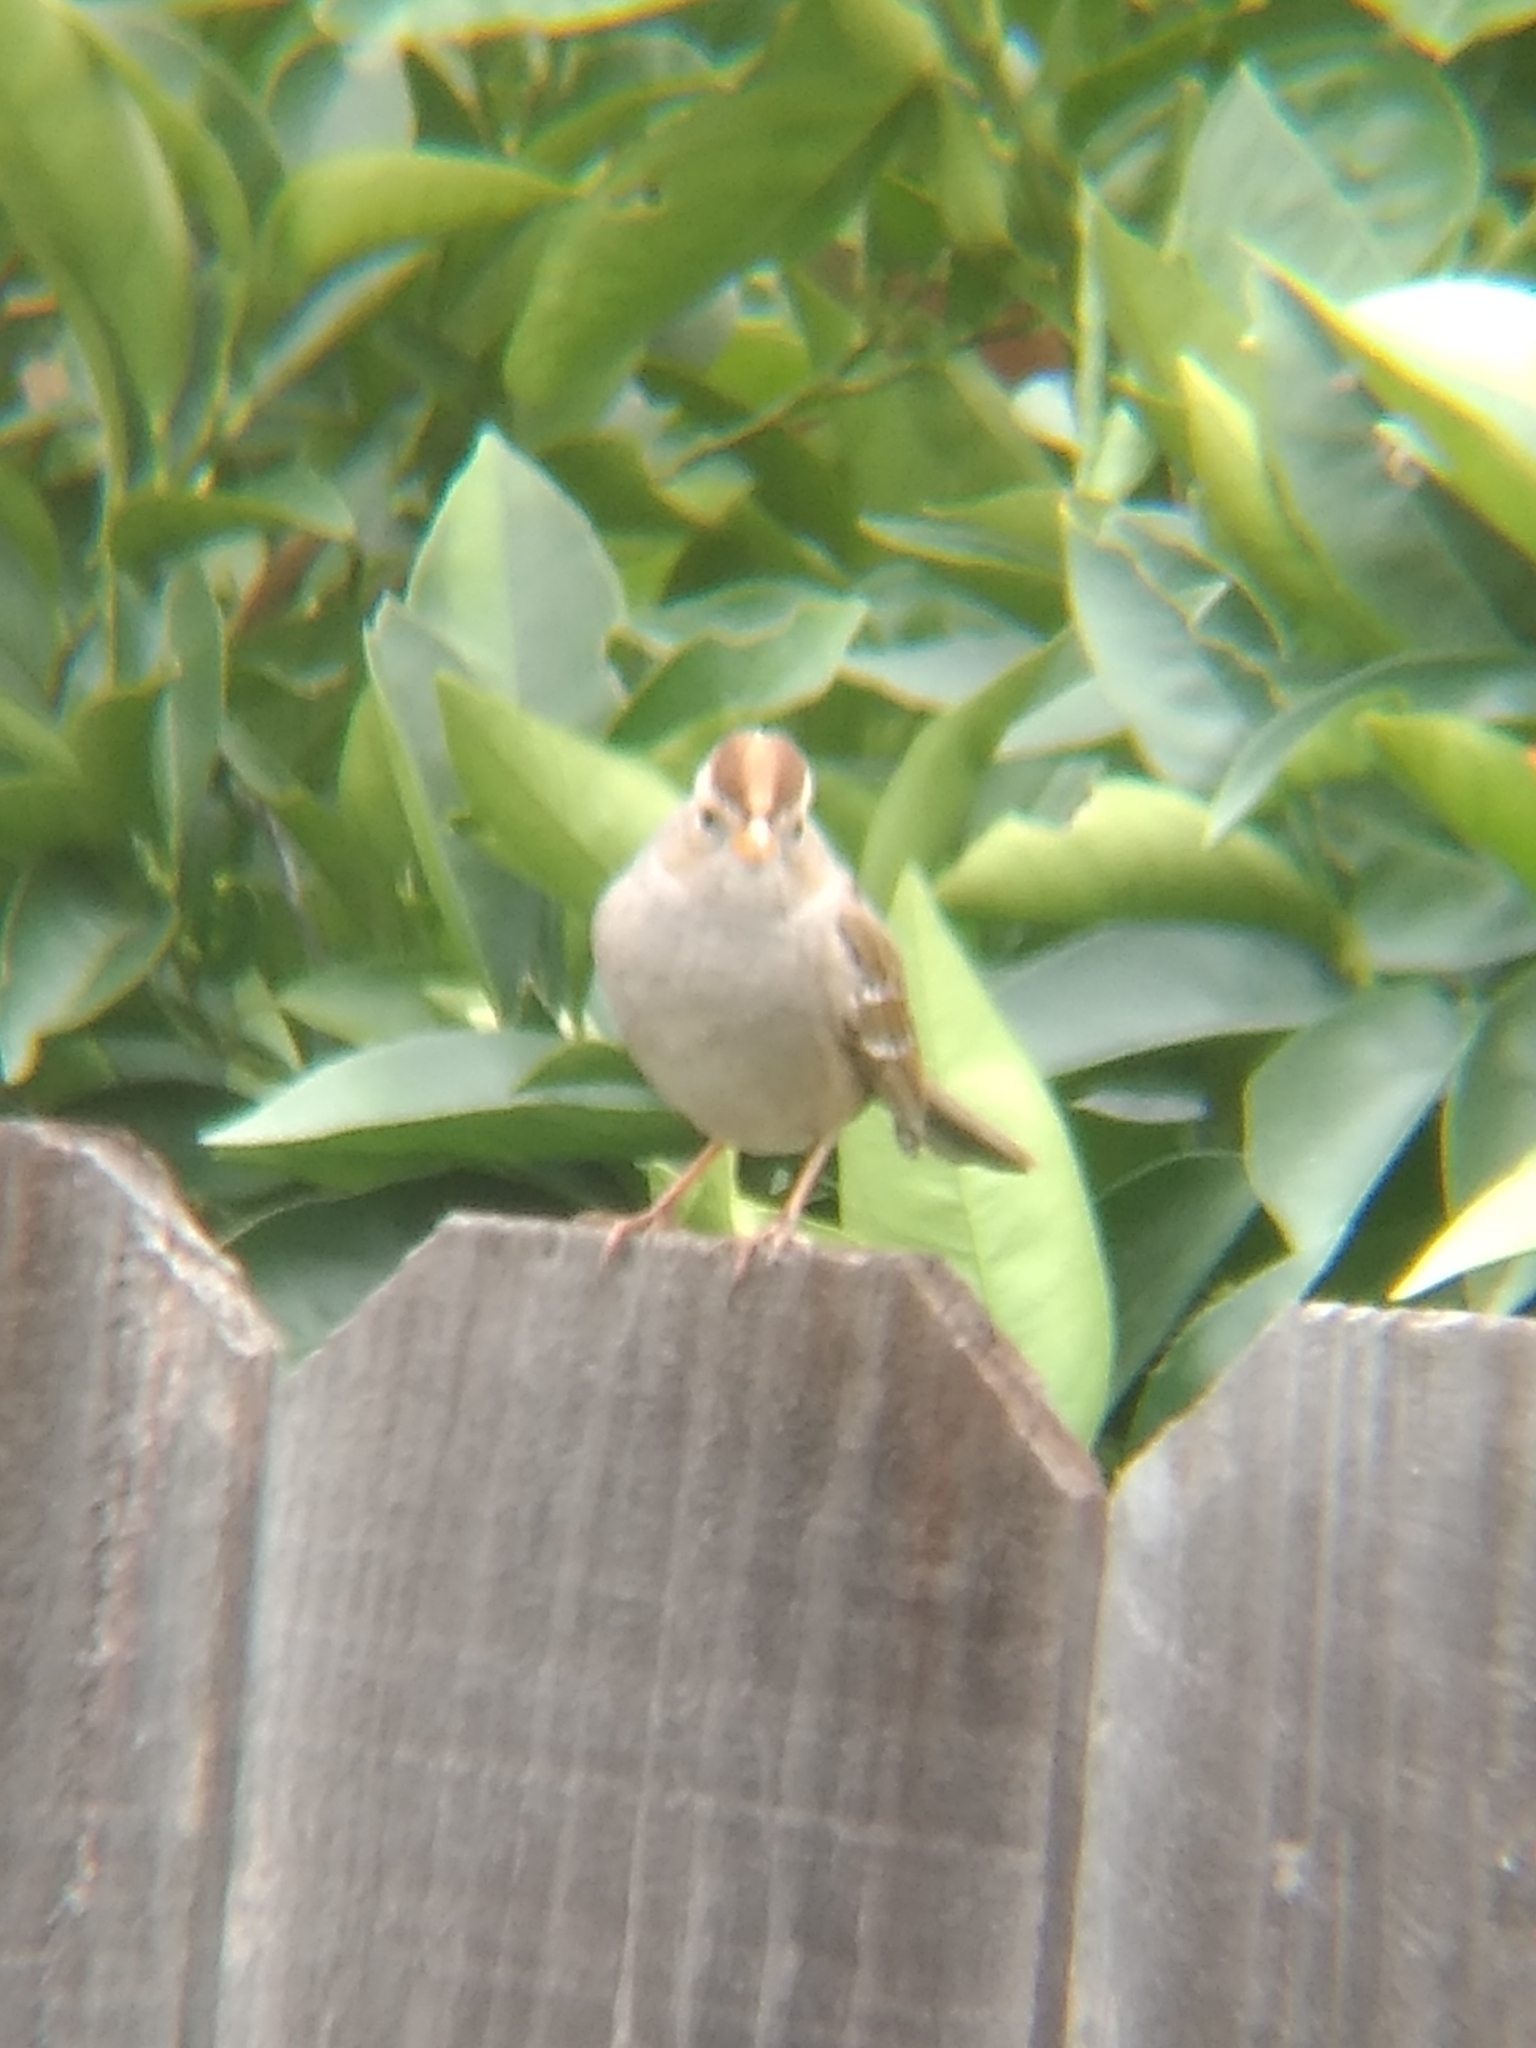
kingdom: Animalia
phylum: Chordata
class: Aves
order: Passeriformes
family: Passerellidae
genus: Zonotrichia
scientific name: Zonotrichia leucophrys
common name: White-crowned sparrow
